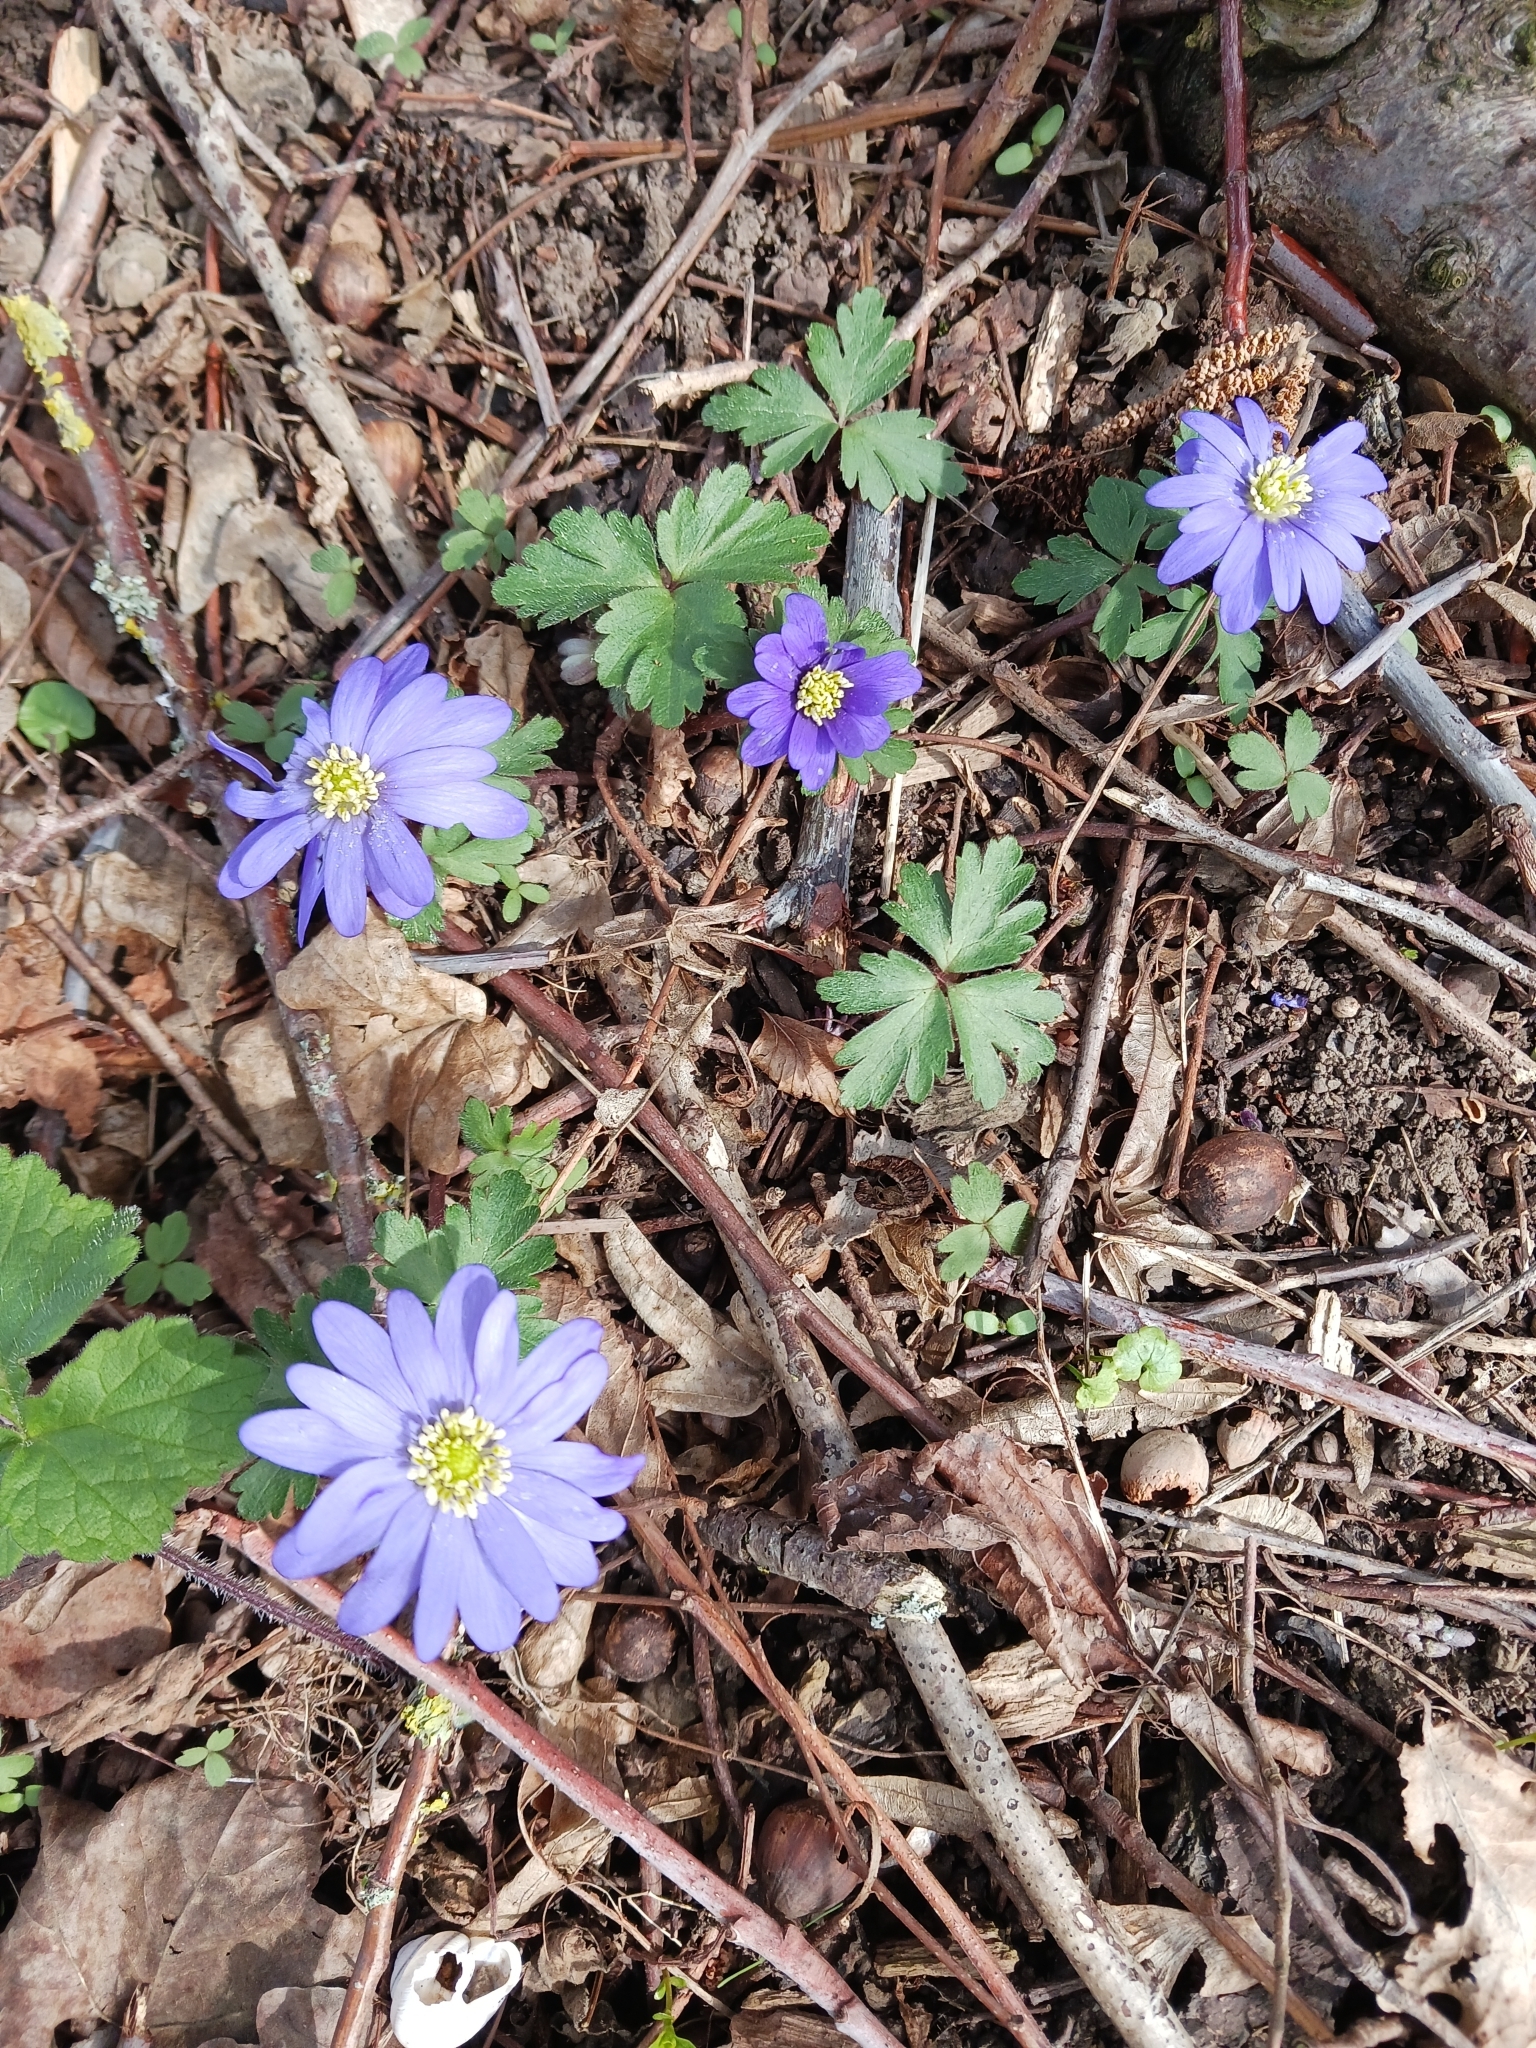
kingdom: Plantae
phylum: Tracheophyta
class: Magnoliopsida
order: Ranunculales
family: Ranunculaceae
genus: Anemone
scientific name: Anemone blanda
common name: Balkan anemone
